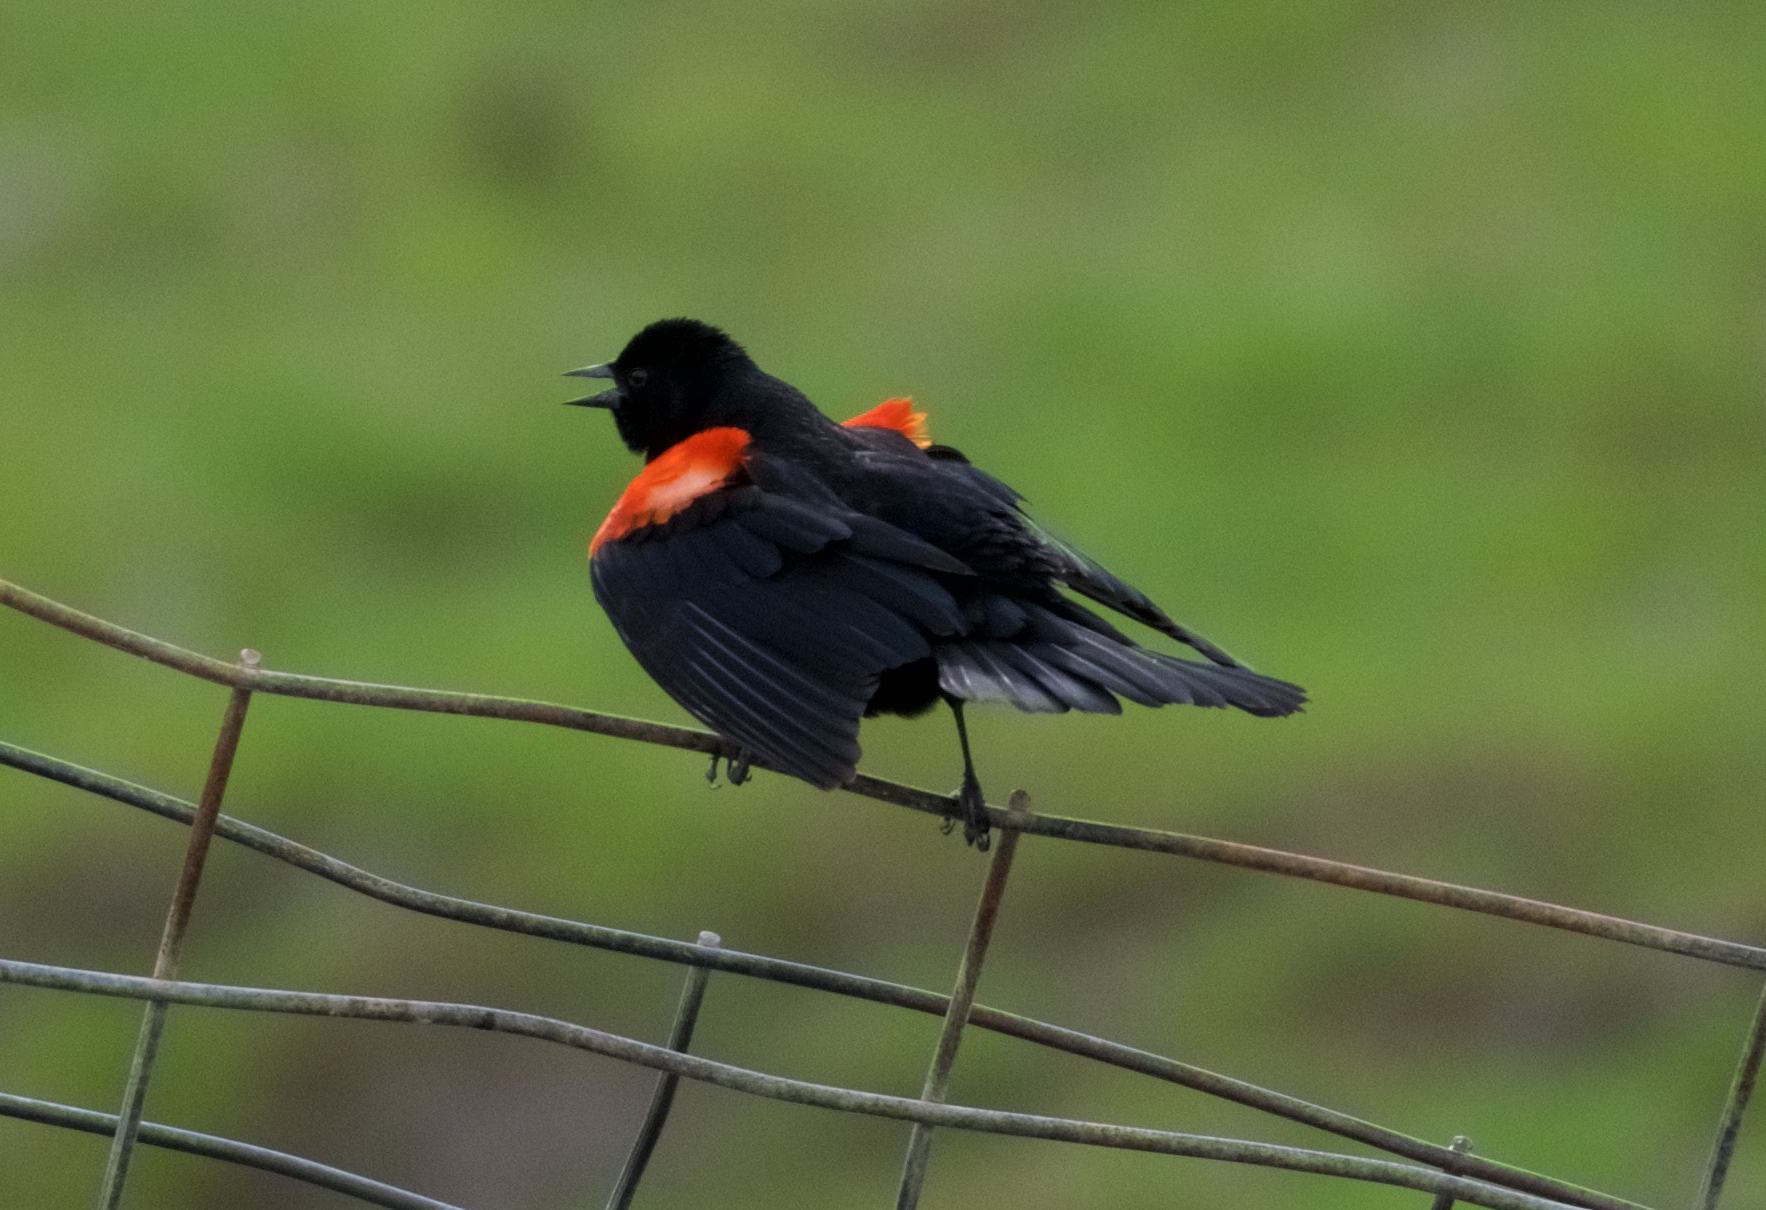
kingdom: Animalia
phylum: Chordata
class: Aves
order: Passeriformes
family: Icteridae
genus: Agelaius
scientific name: Agelaius phoeniceus
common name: Red-winged blackbird
